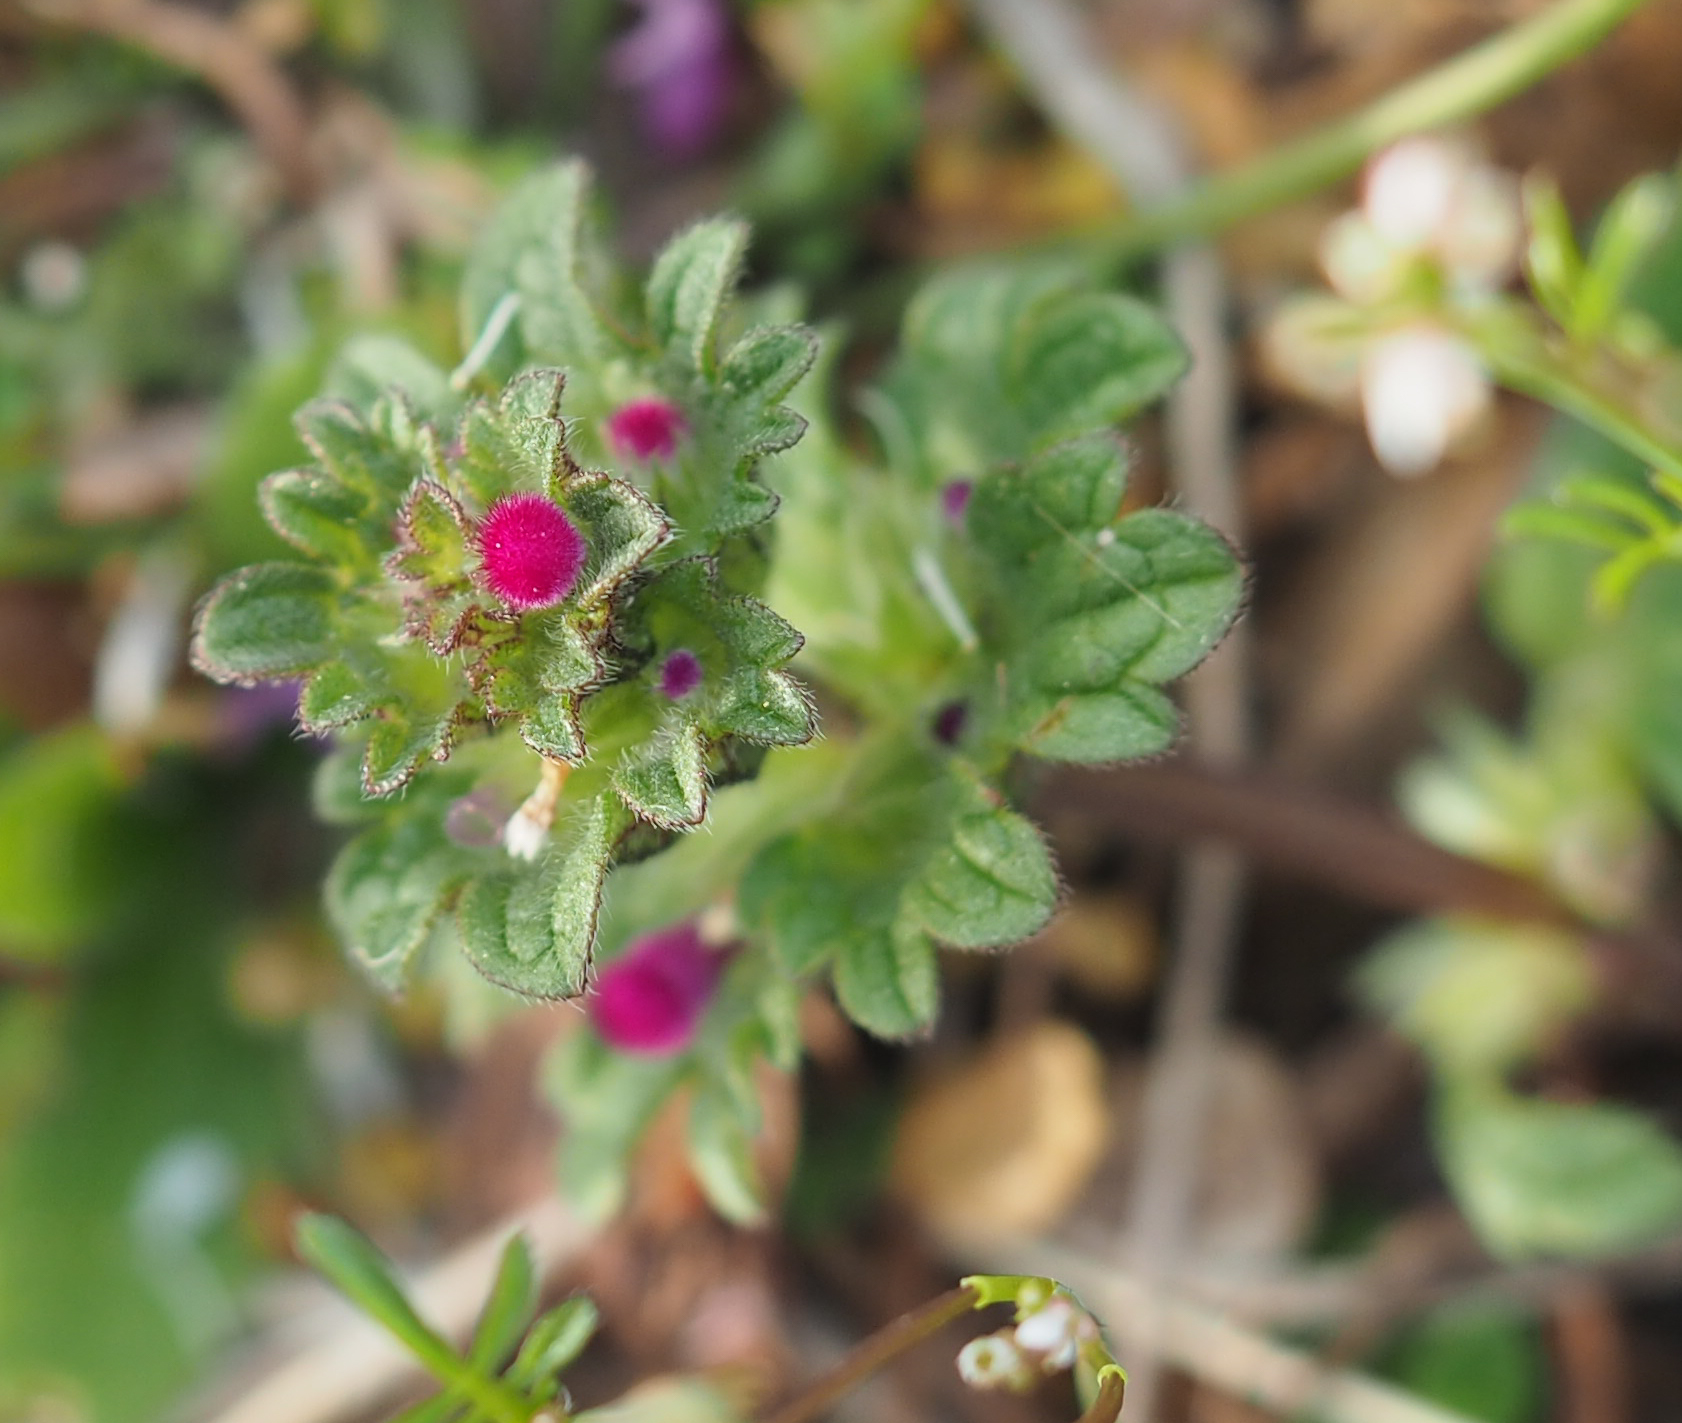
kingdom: Plantae
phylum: Tracheophyta
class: Magnoliopsida
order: Lamiales
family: Lamiaceae
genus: Lamium
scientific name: Lamium amplexicaule
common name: Henbit dead-nettle
